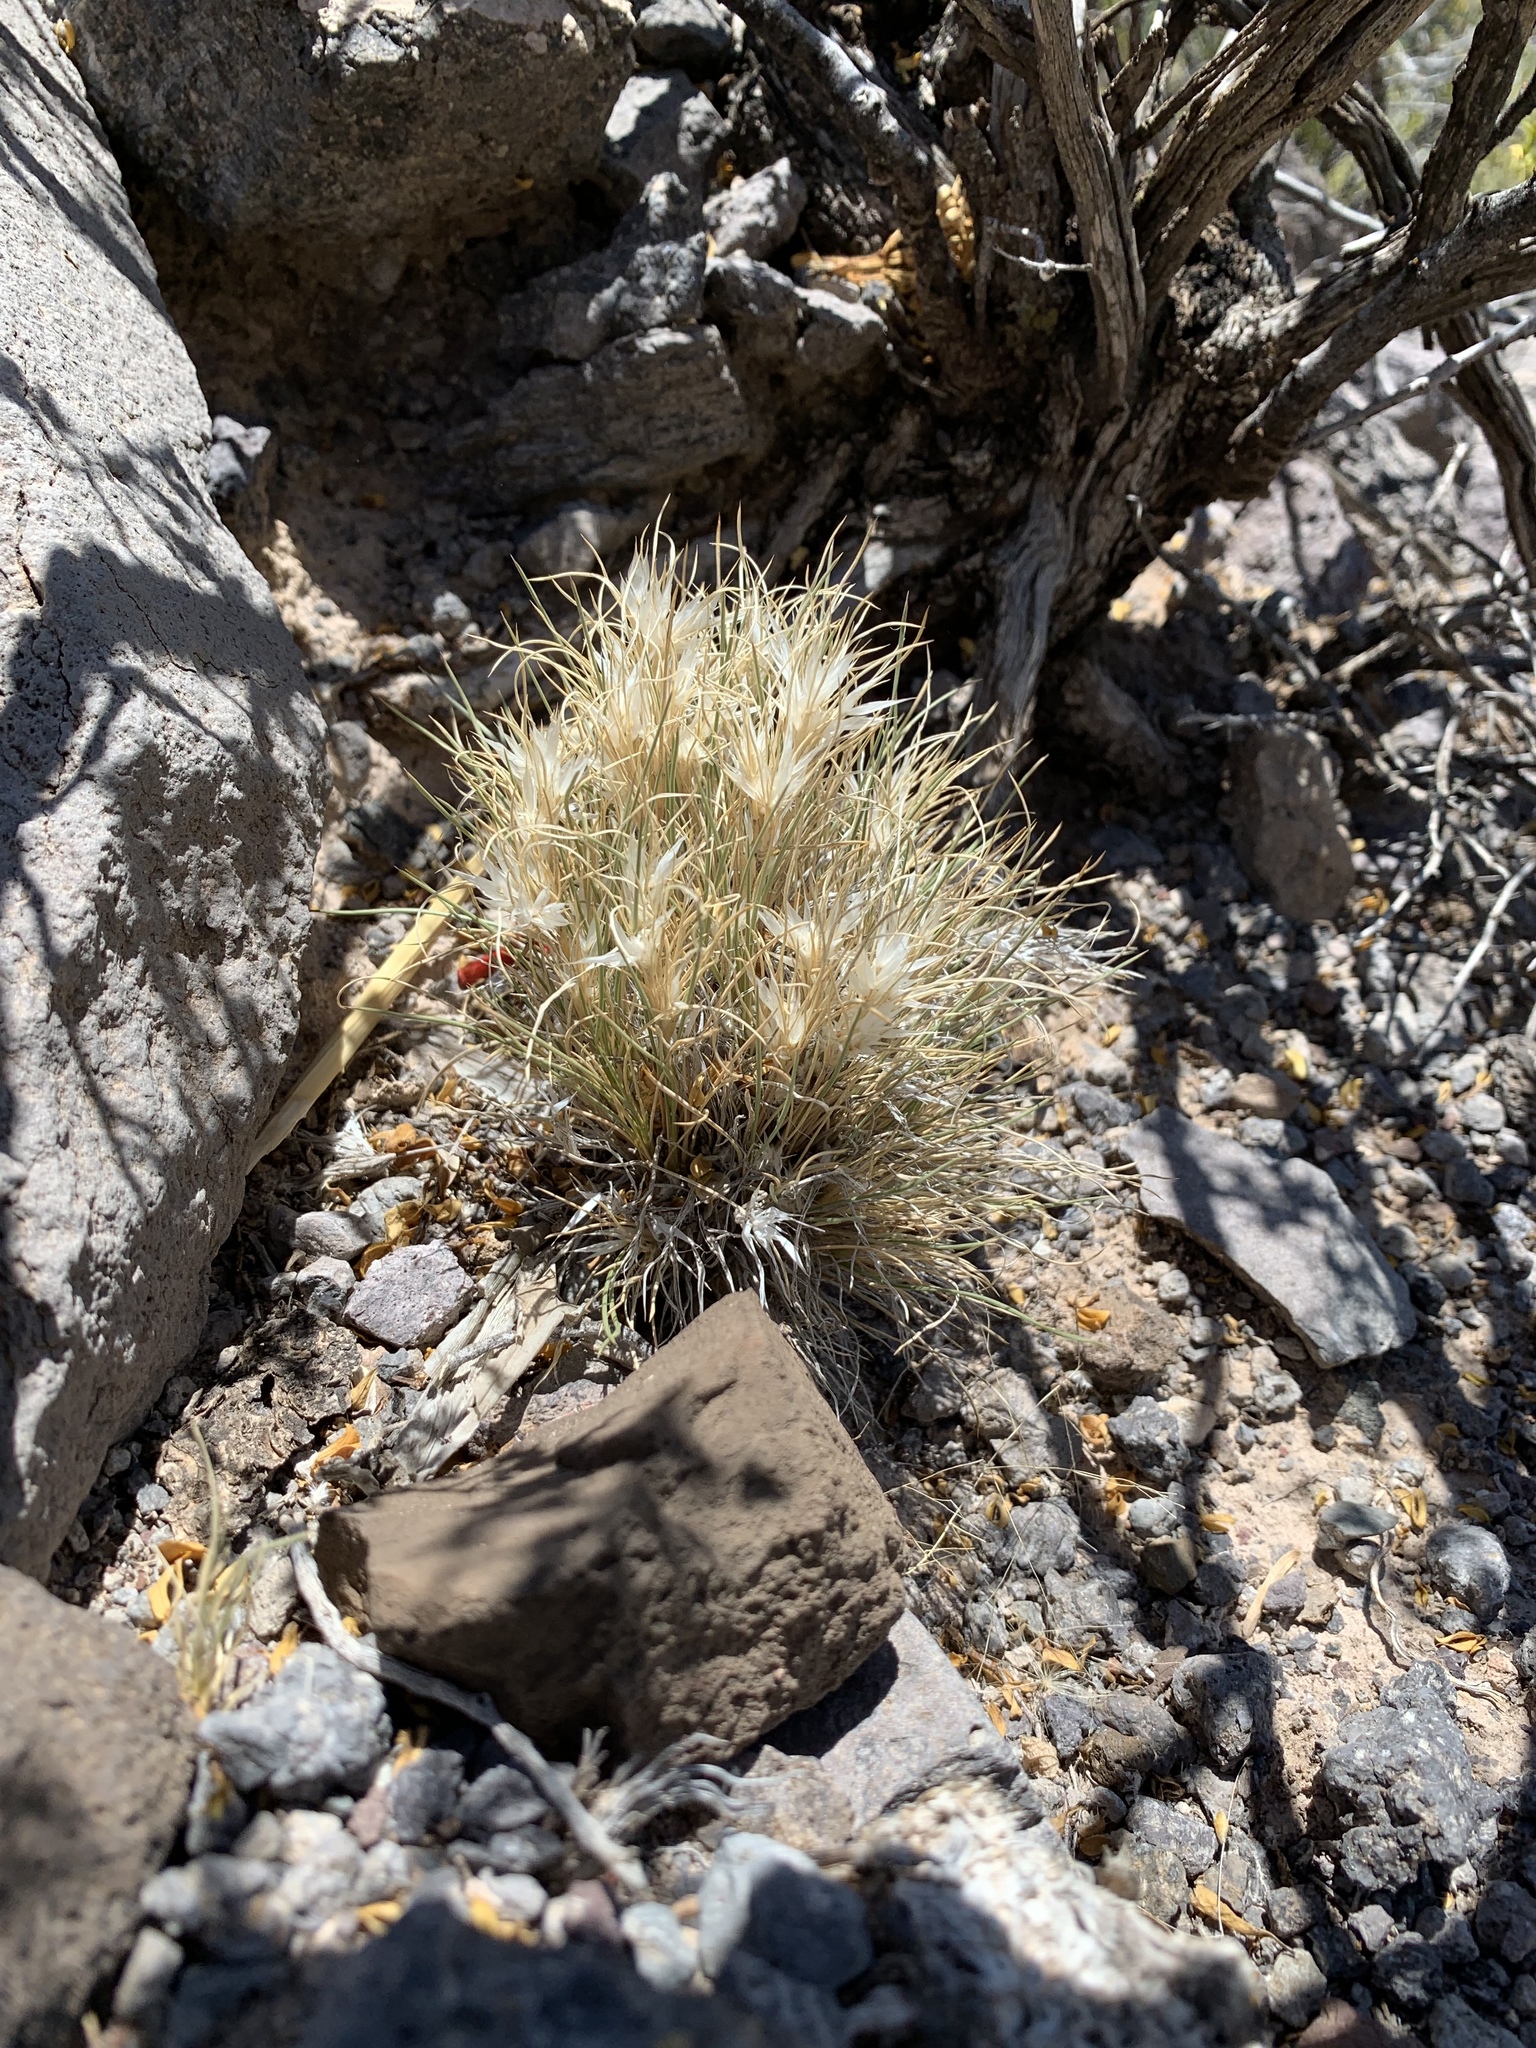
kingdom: Plantae
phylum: Tracheophyta
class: Liliopsida
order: Poales
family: Poaceae
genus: Dasyochloa
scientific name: Dasyochloa pulchella
